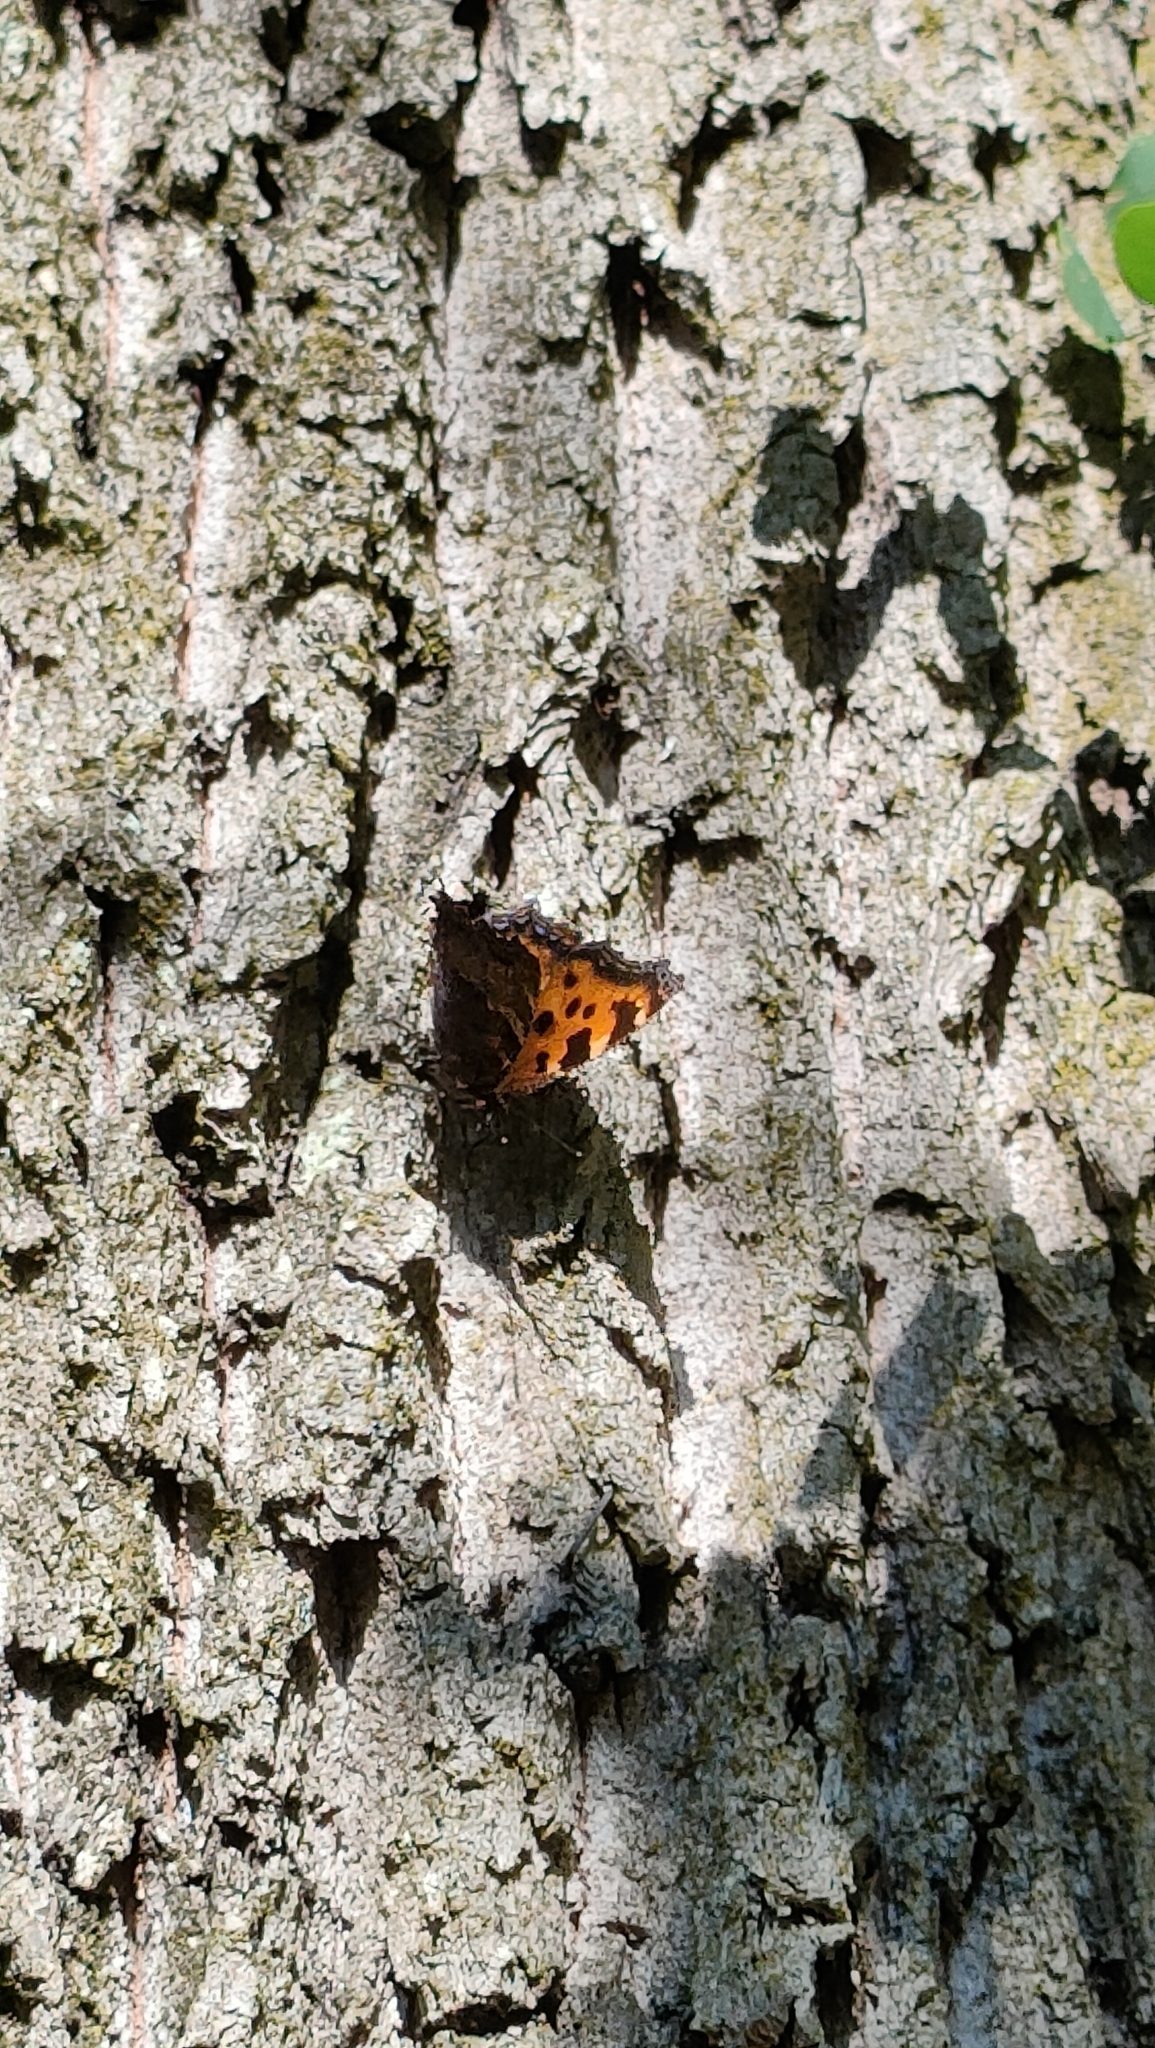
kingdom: Animalia
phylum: Arthropoda
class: Insecta
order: Lepidoptera
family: Nymphalidae
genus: Nymphalis
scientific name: Nymphalis polychloros
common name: Large tortoiseshell
